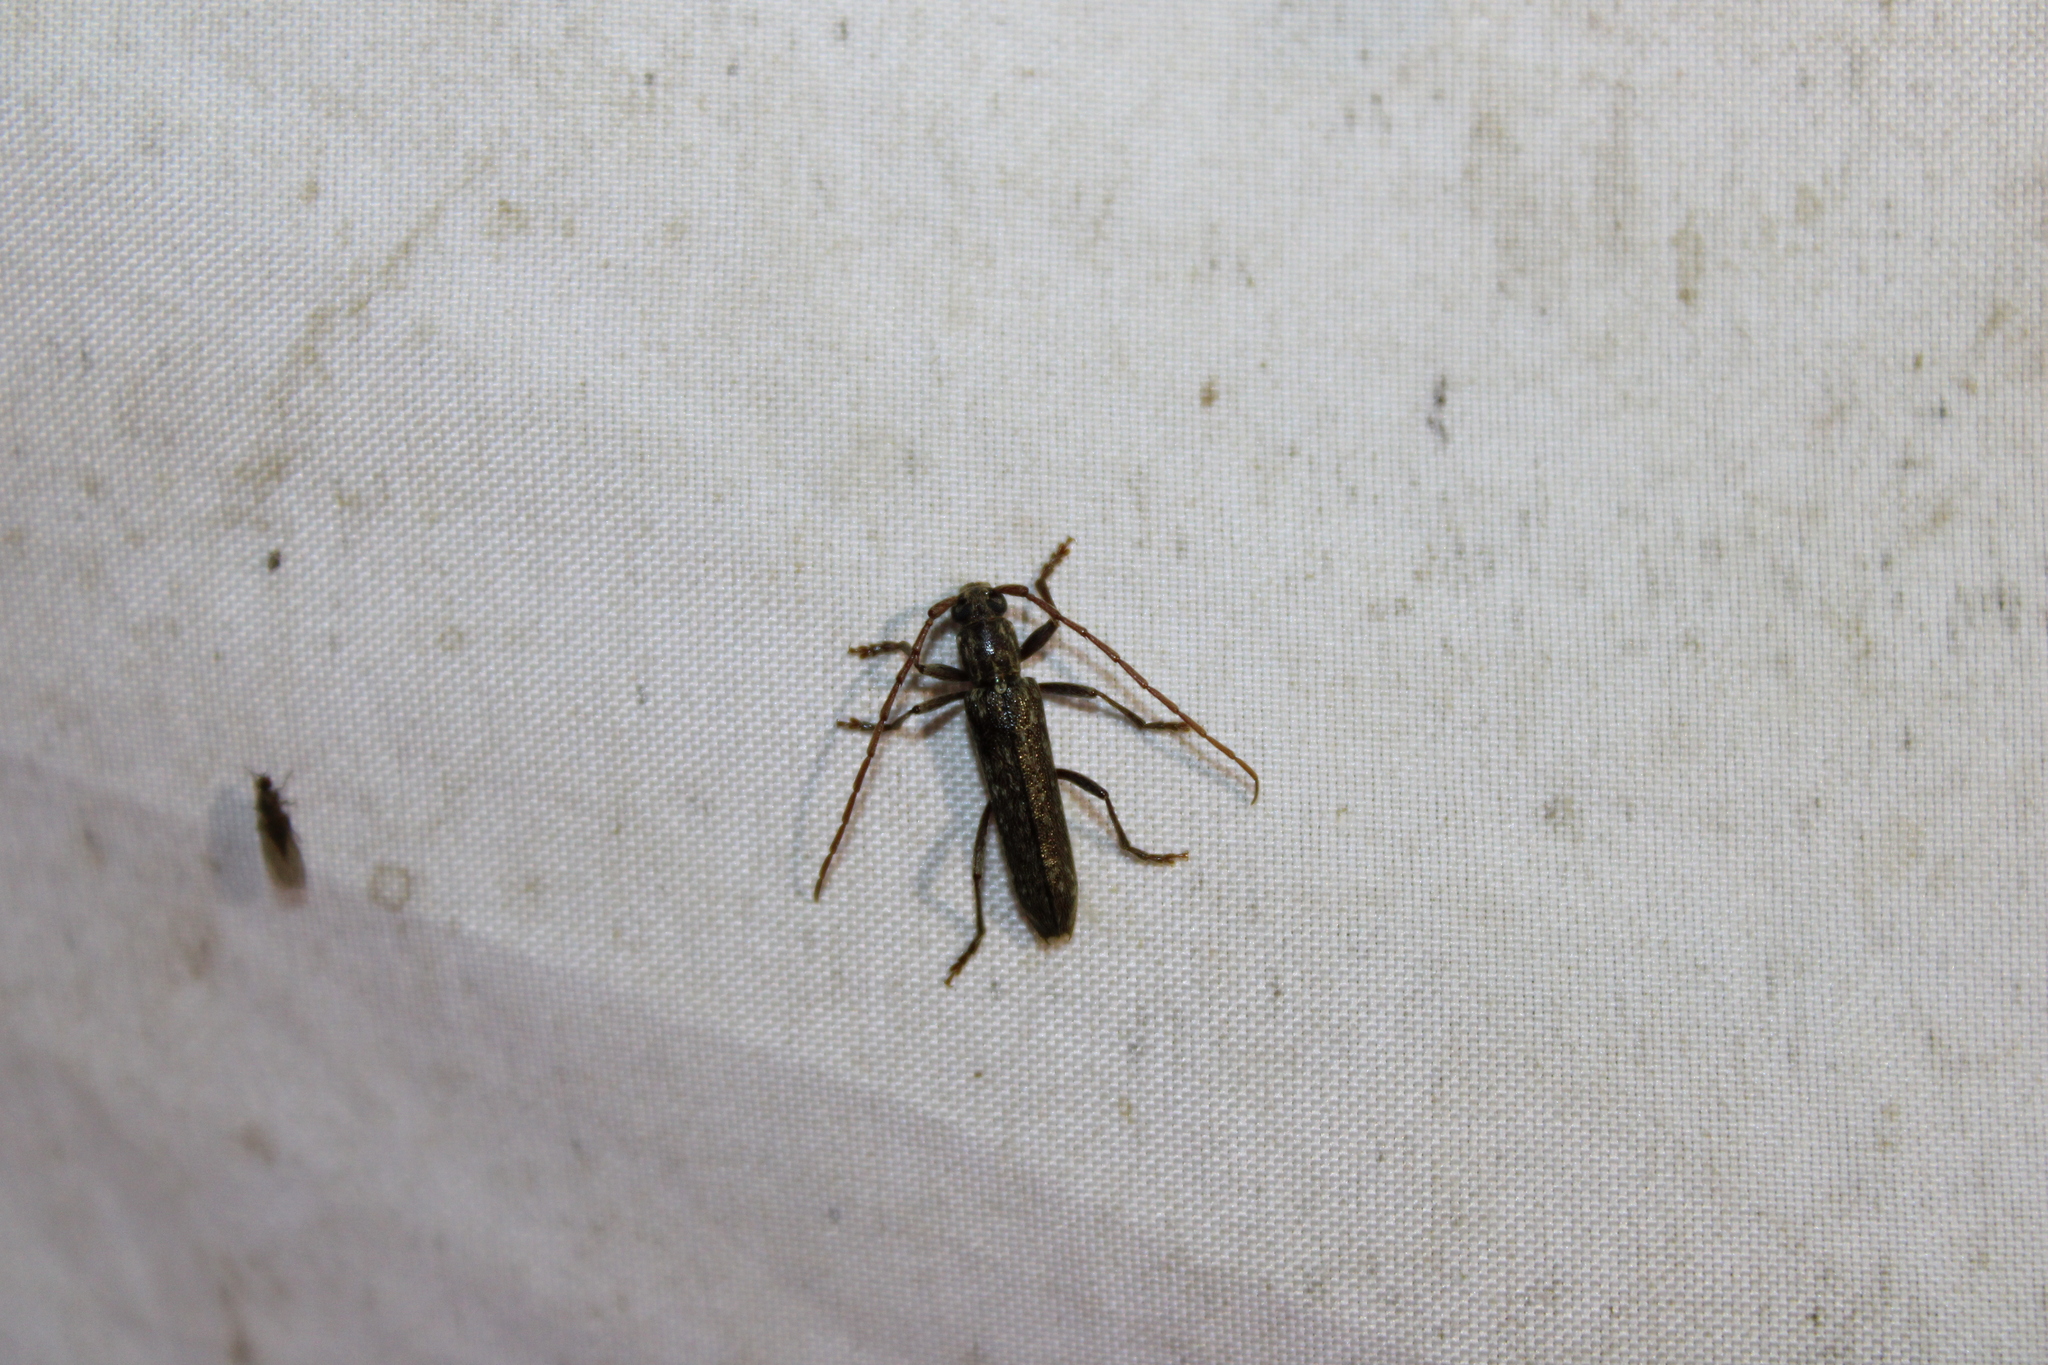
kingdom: Animalia
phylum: Arthropoda
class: Insecta
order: Coleoptera
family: Cerambycidae
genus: Anelaphus
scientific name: Anelaphus villosus
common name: Twig pruner
